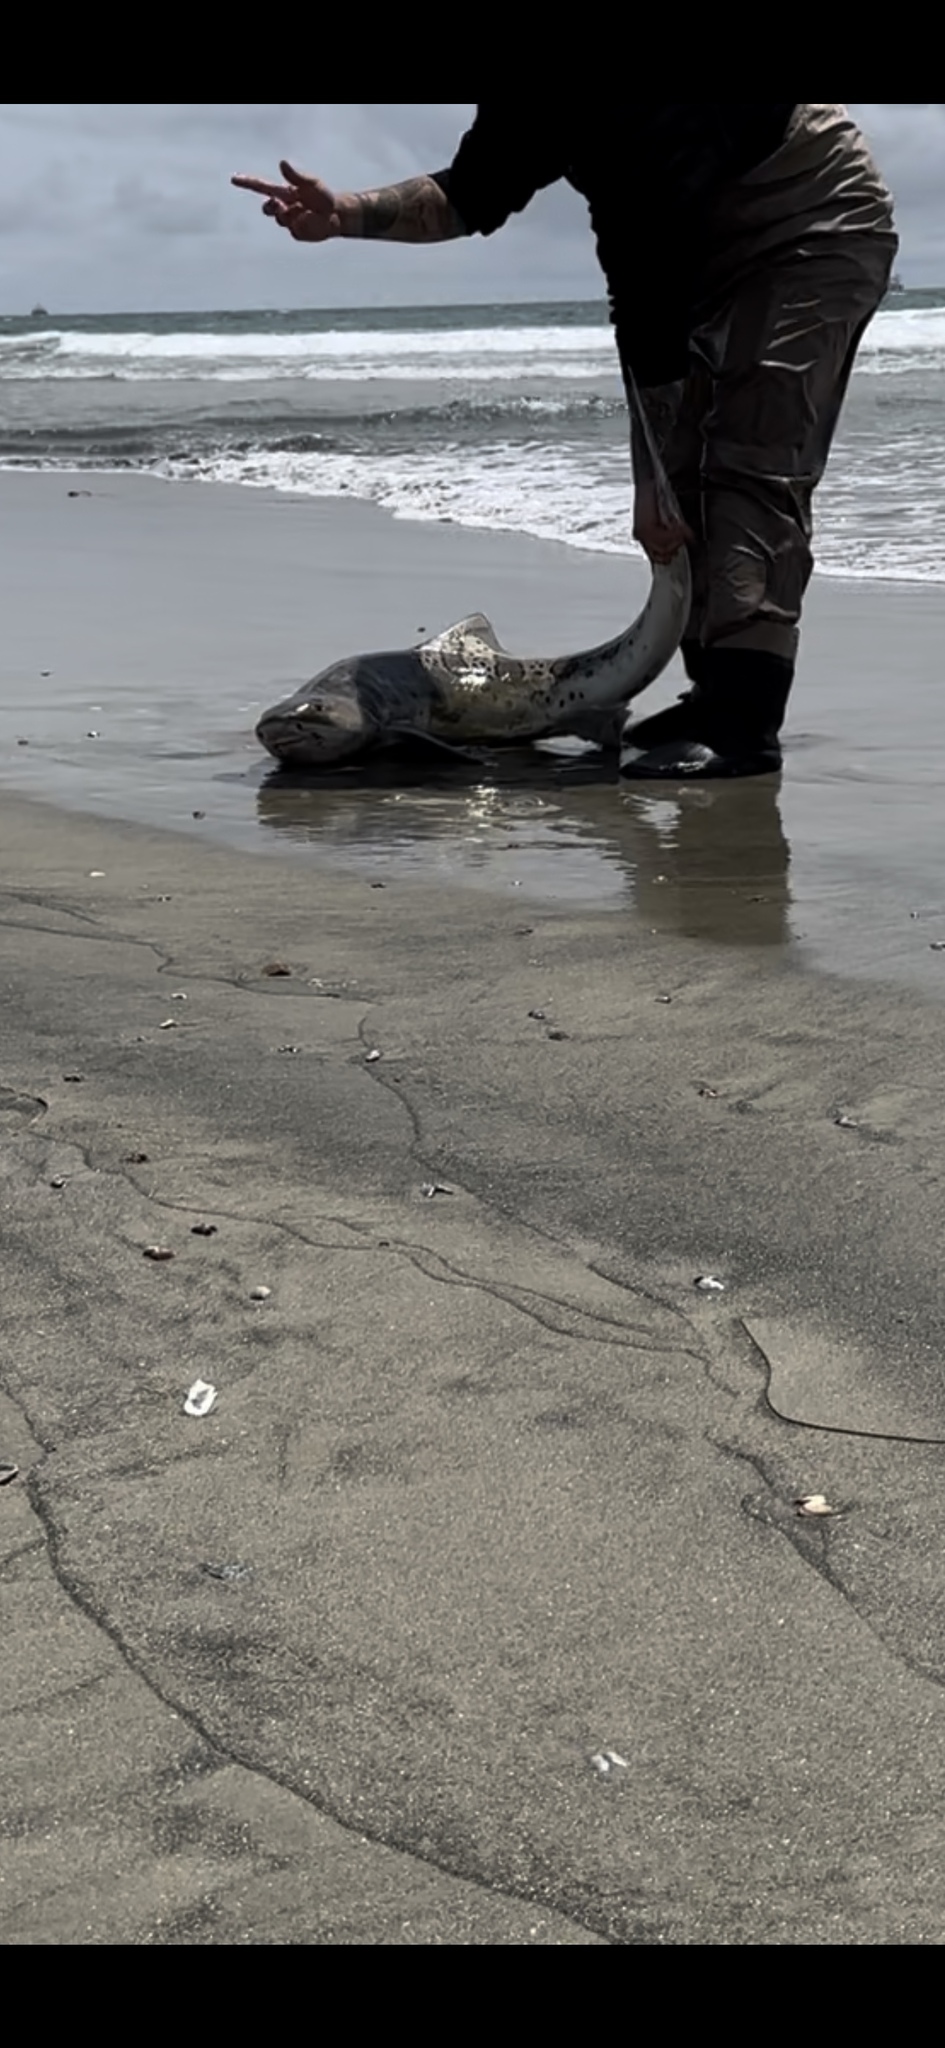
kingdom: Animalia
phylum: Chordata
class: Elasmobranchii
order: Carcharhiniformes
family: Triakidae
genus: Triakis
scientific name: Triakis semifasciata
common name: Leopard shark
